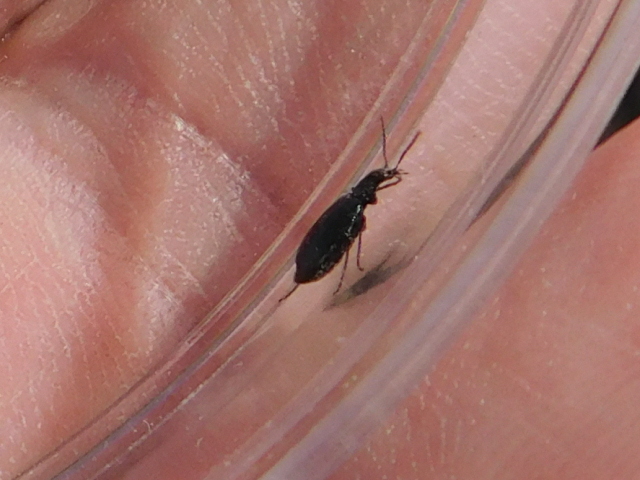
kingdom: Animalia
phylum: Arthropoda
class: Insecta
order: Coleoptera
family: Carabidae
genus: Lebia
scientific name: Lebia viridis
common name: Flower lebia beetle
